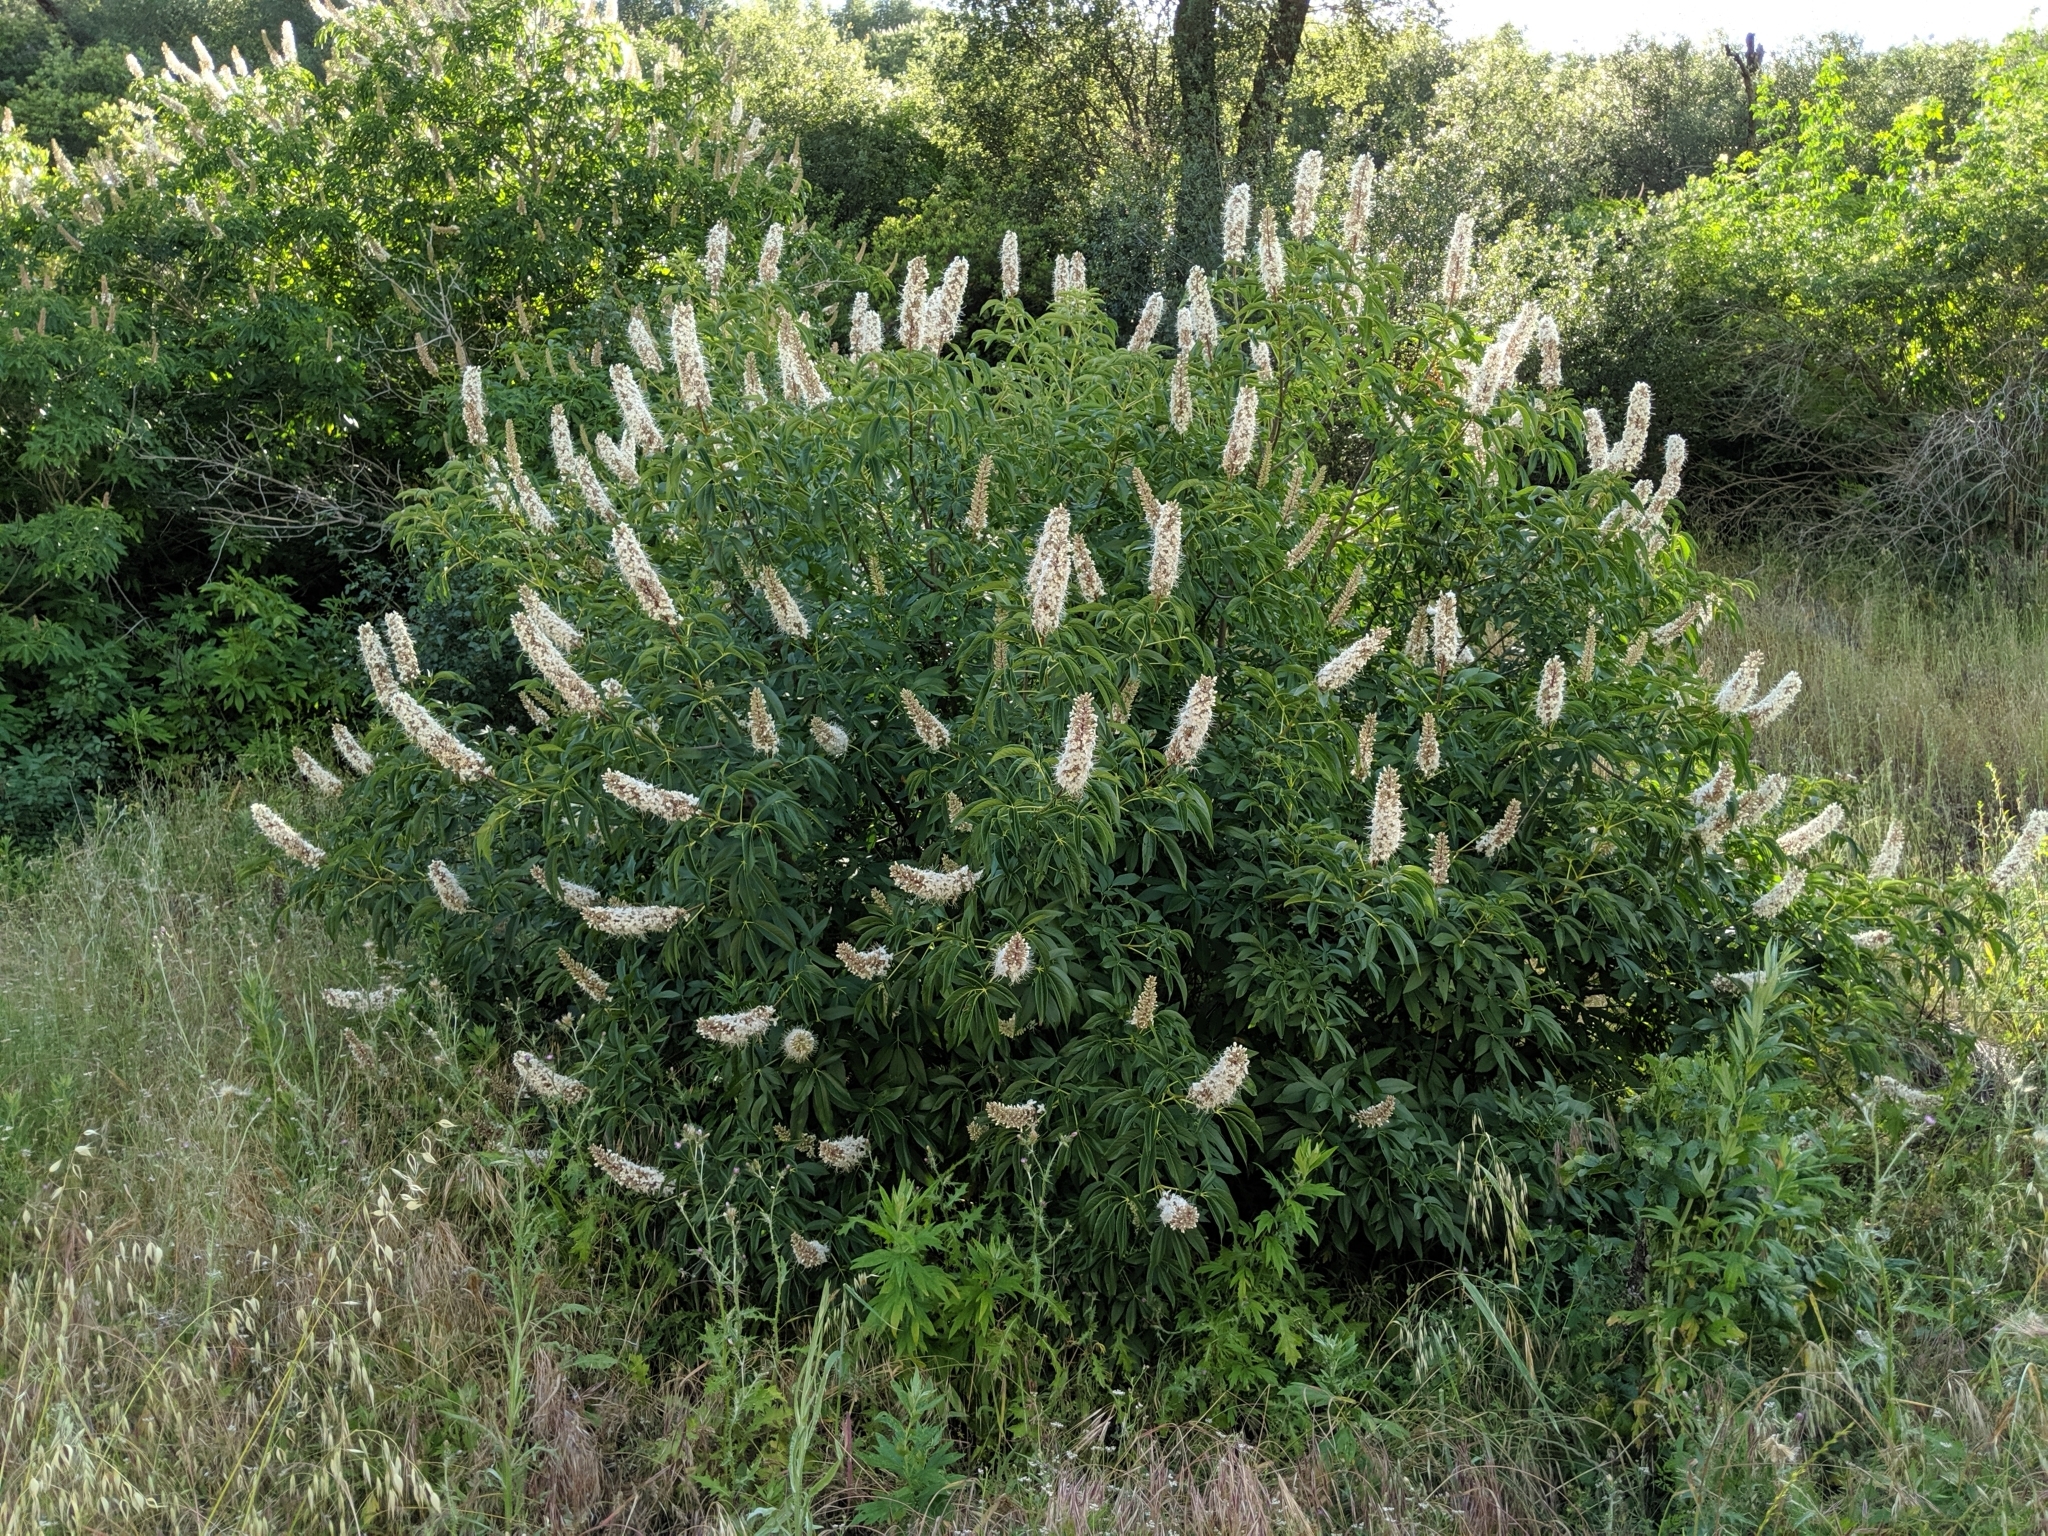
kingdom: Plantae
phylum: Tracheophyta
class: Magnoliopsida
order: Sapindales
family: Sapindaceae
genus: Aesculus
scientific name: Aesculus californica
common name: California buckeye
